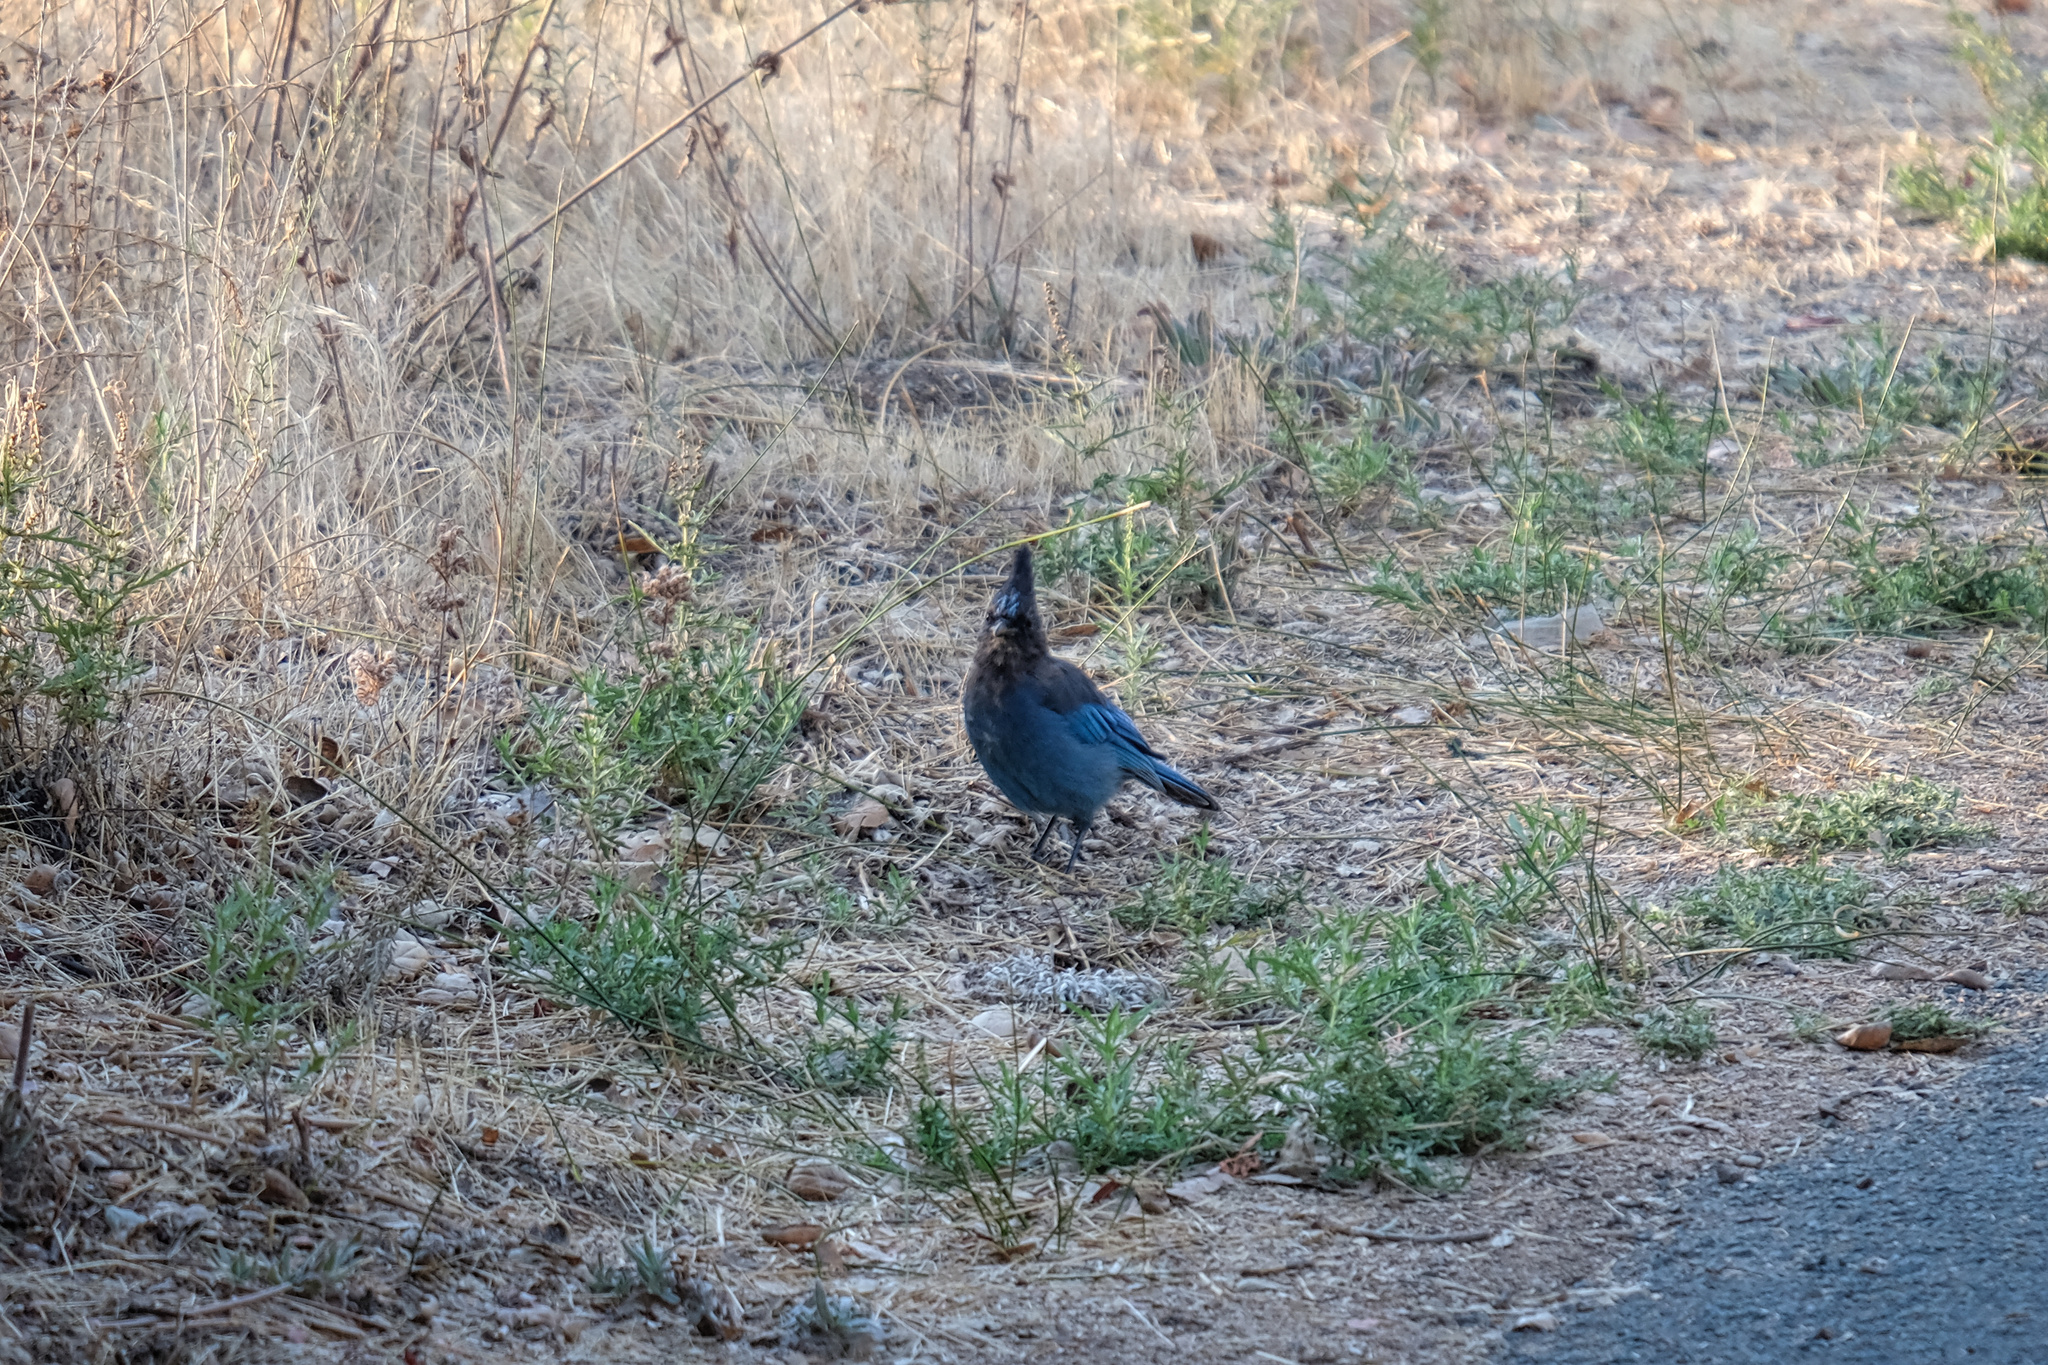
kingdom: Animalia
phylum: Chordata
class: Aves
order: Passeriformes
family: Corvidae
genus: Cyanocitta
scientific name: Cyanocitta stelleri
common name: Steller's jay
